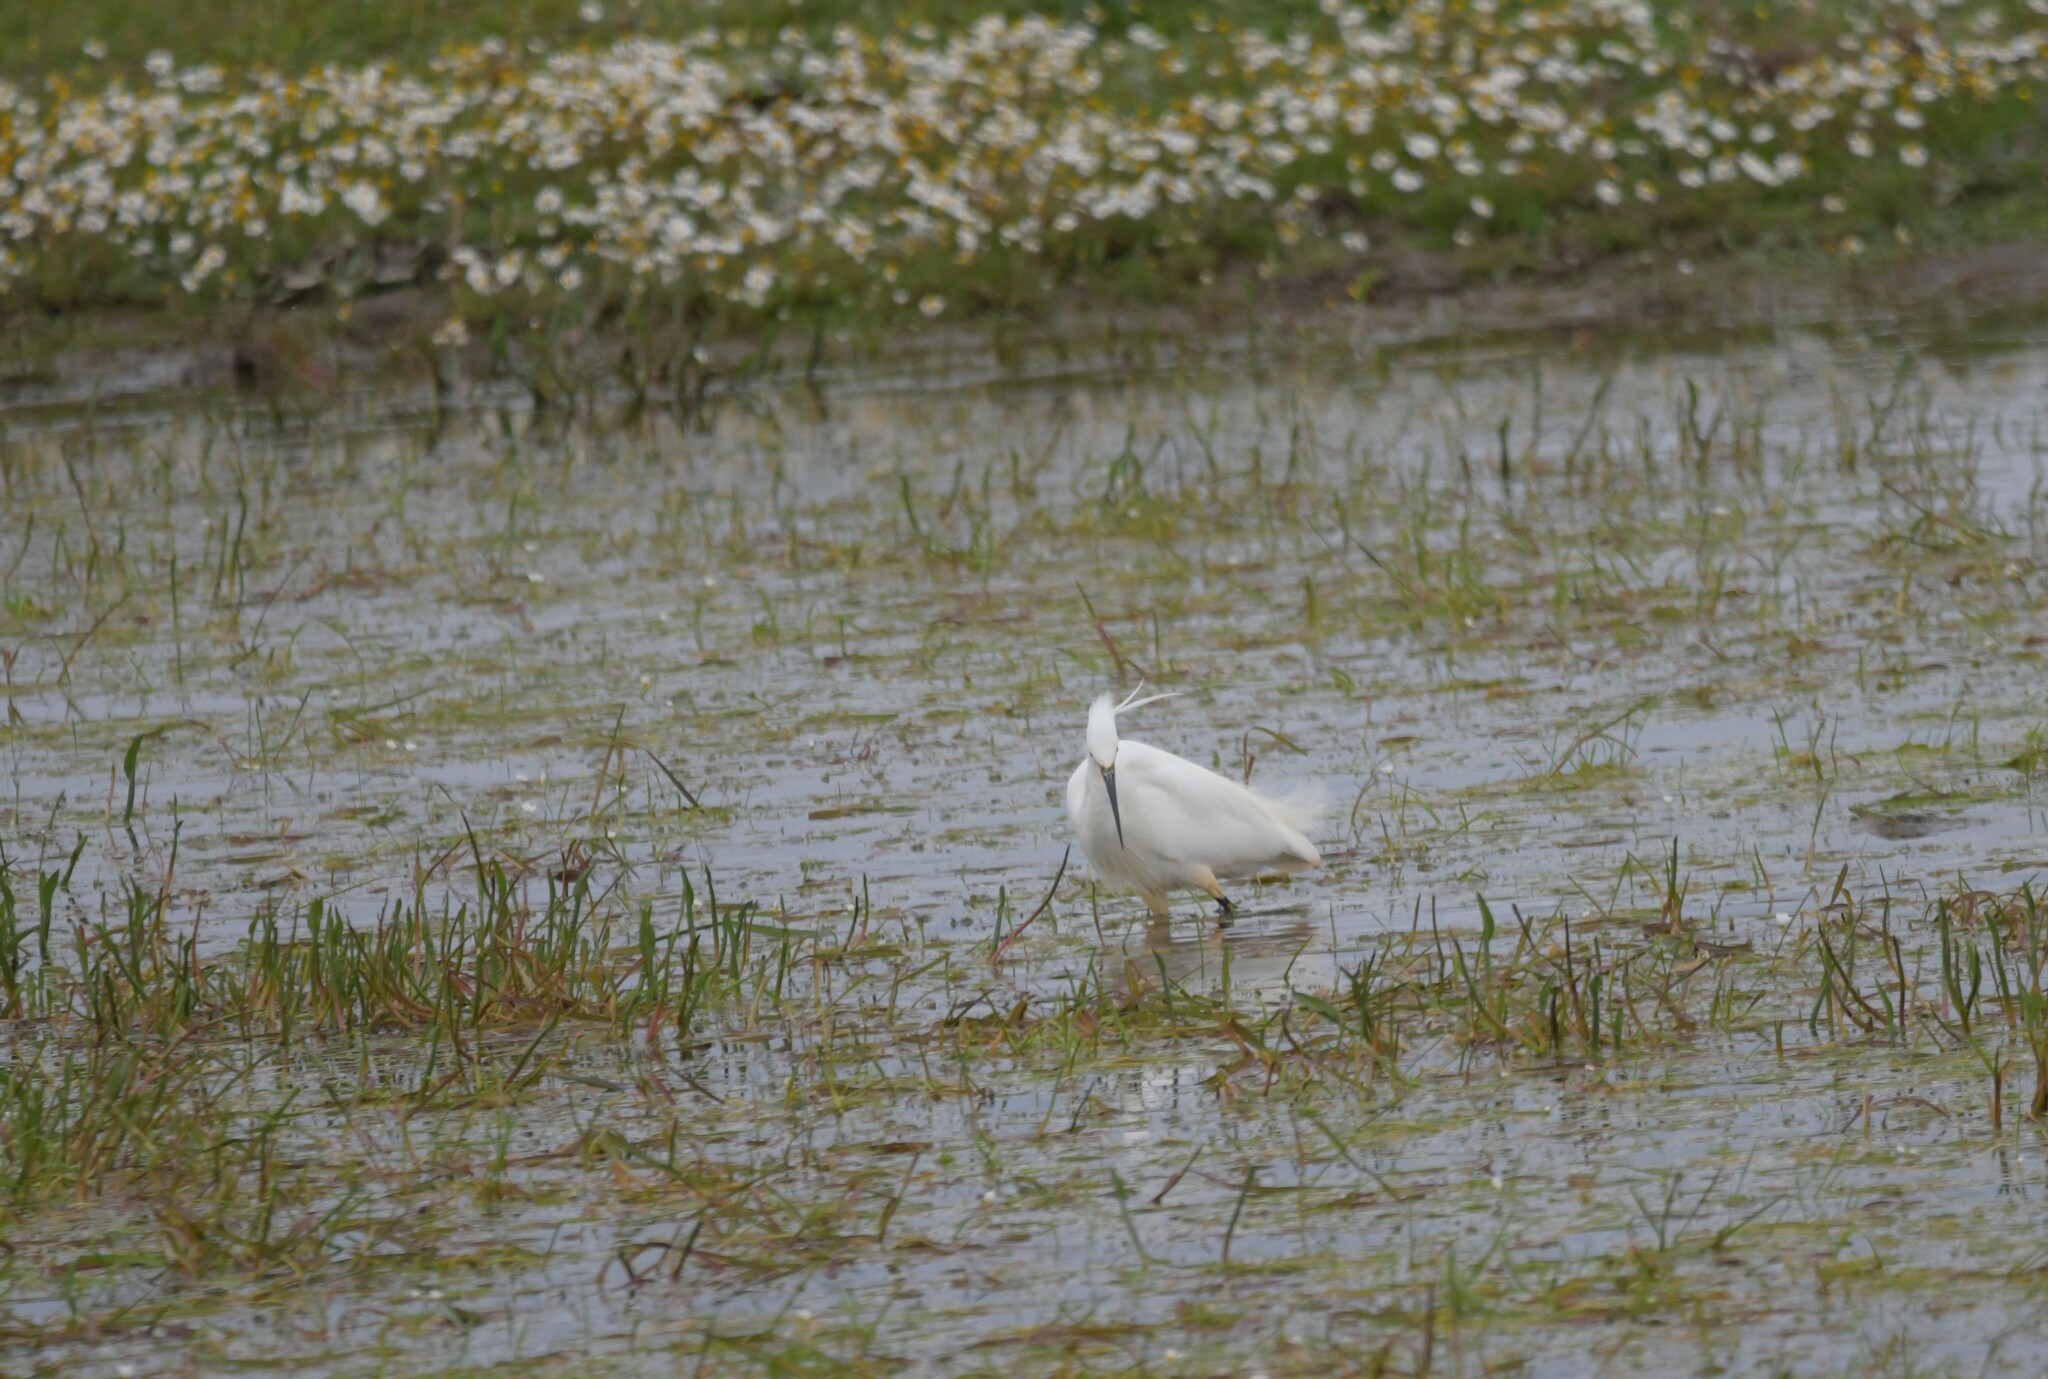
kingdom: Animalia
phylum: Chordata
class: Aves
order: Pelecaniformes
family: Ardeidae
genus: Egretta
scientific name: Egretta garzetta
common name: Little egret
